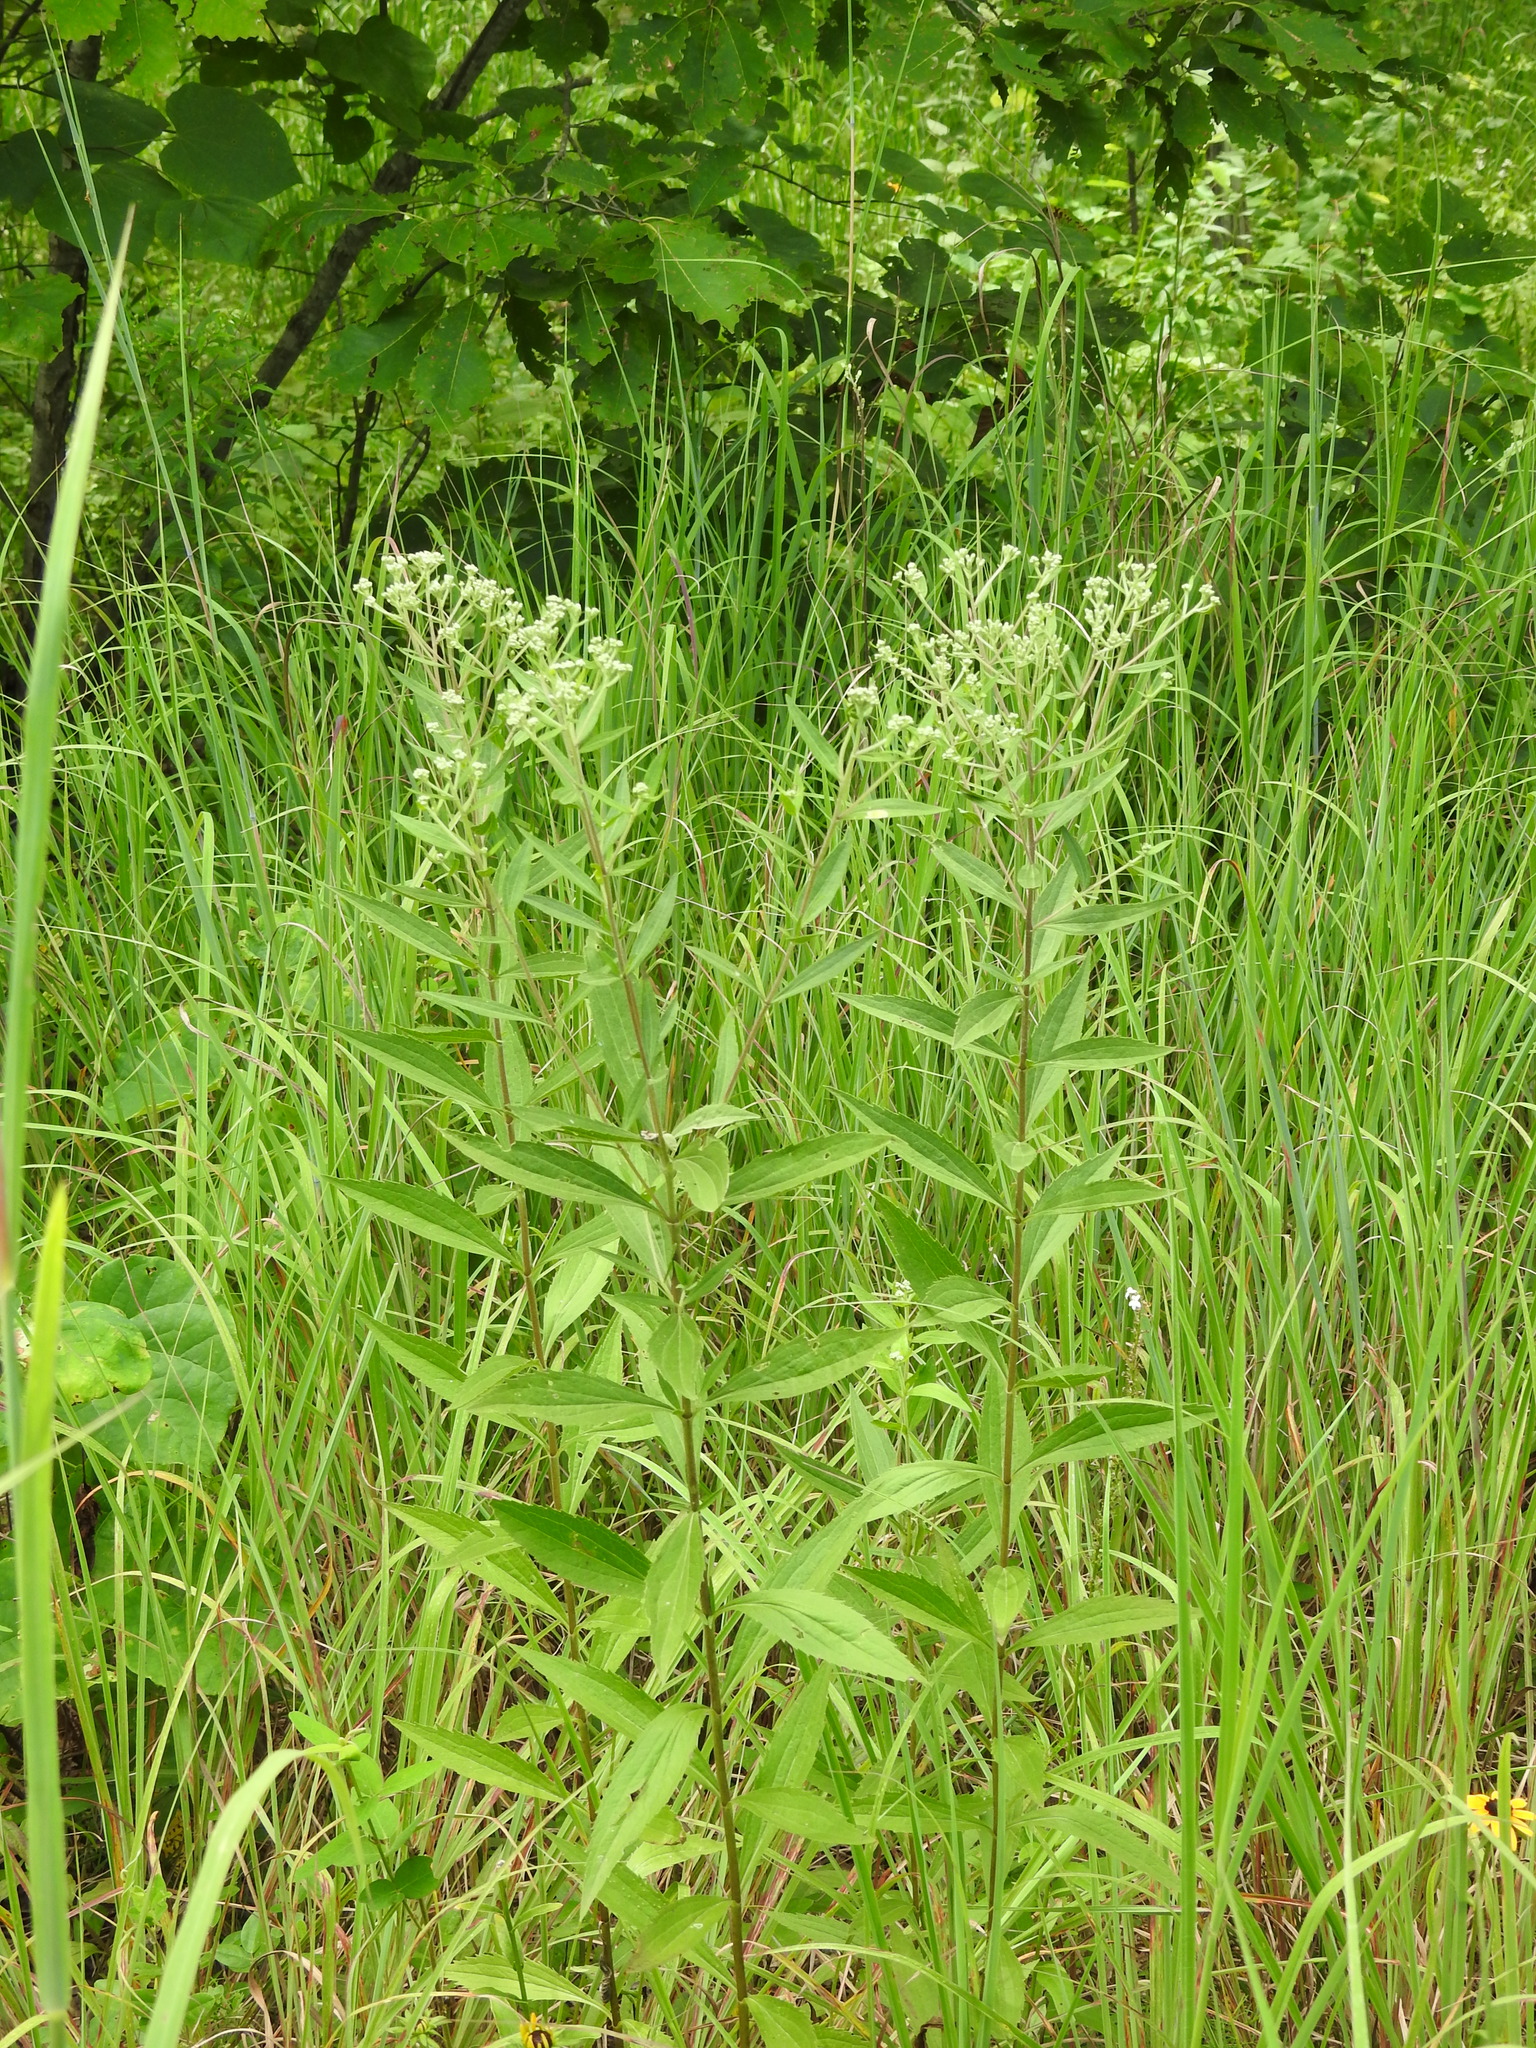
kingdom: Plantae
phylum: Tracheophyta
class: Magnoliopsida
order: Asterales
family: Asteraceae
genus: Eupatorium
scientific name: Eupatorium altissimum
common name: Tall thoroughwort
